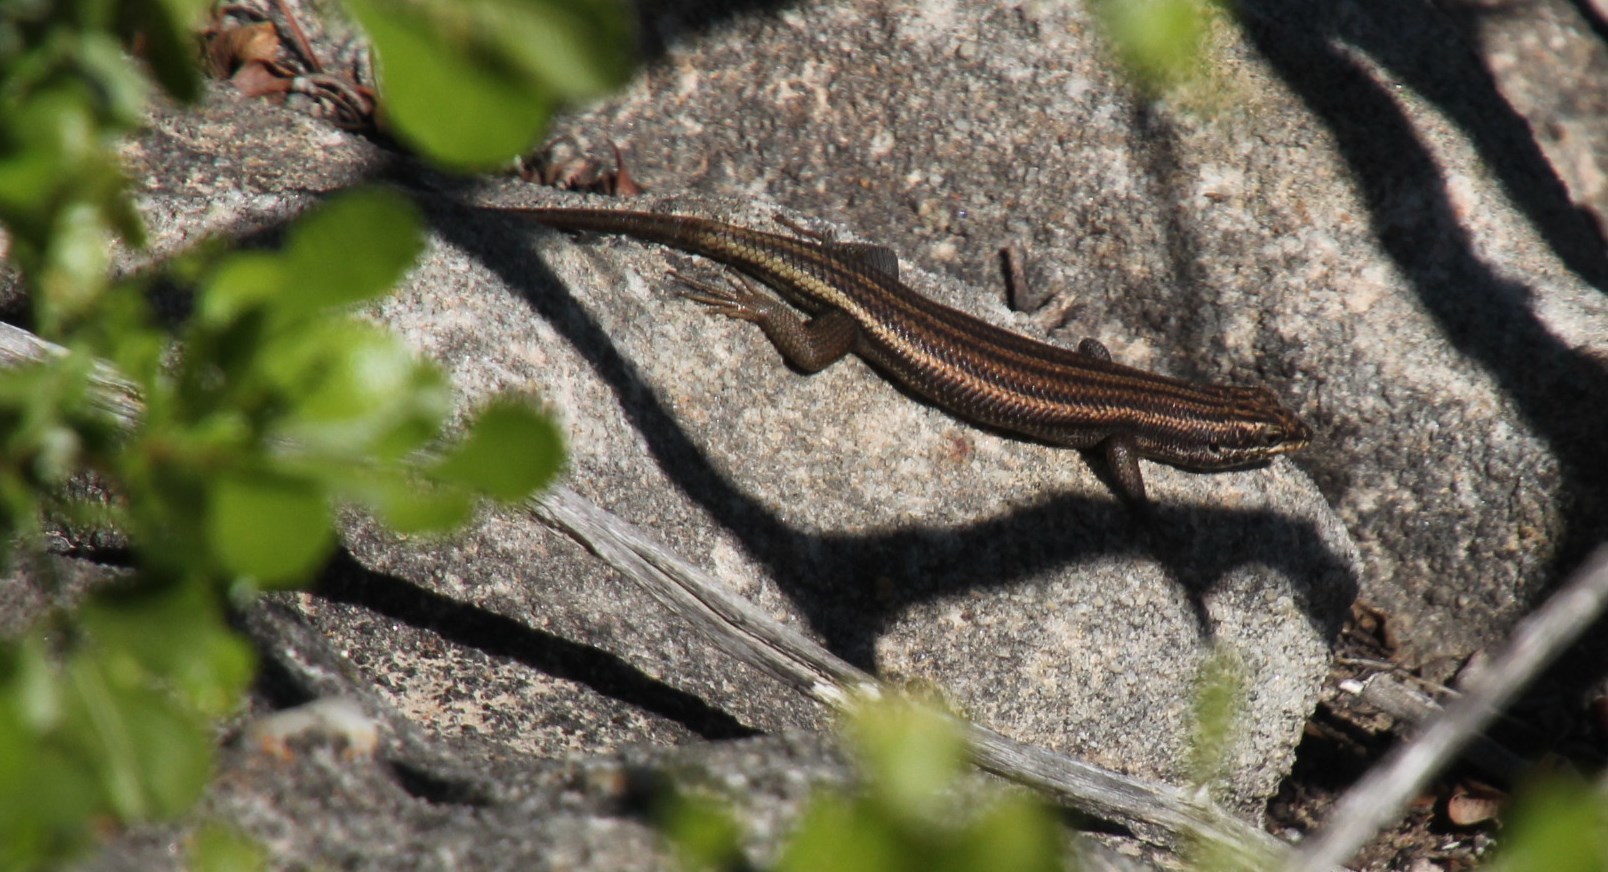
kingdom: Animalia
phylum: Chordata
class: Squamata
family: Scincidae
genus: Trachylepis
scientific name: Trachylepis sulcata
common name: Western rock skink
